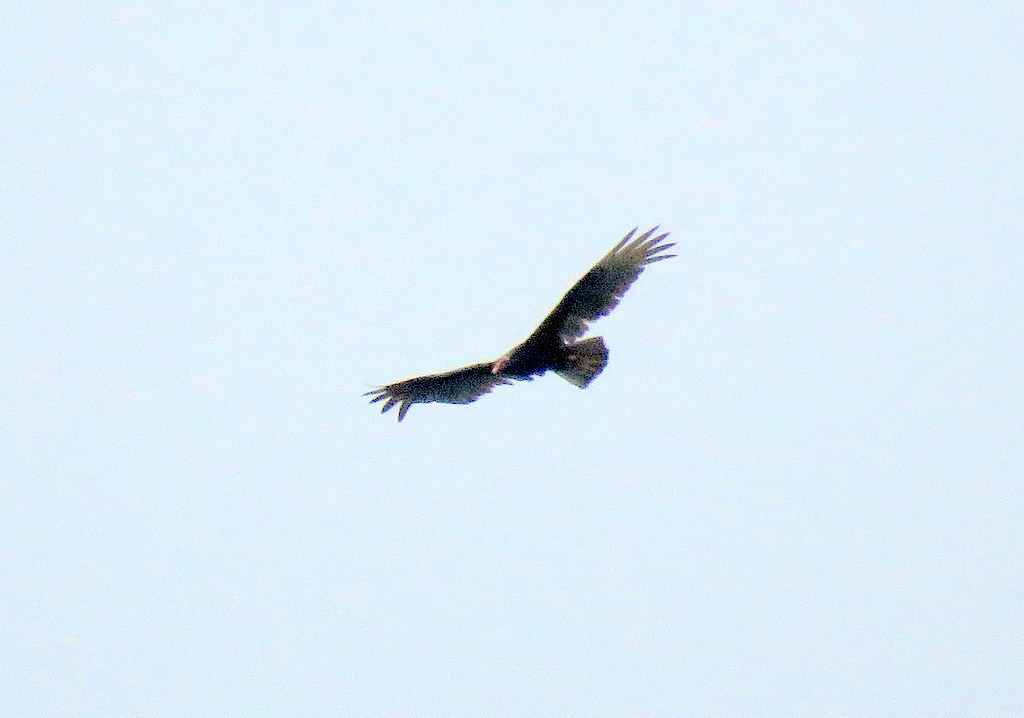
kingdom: Animalia
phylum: Chordata
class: Aves
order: Accipitriformes
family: Cathartidae
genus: Cathartes
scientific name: Cathartes aura
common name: Turkey vulture
